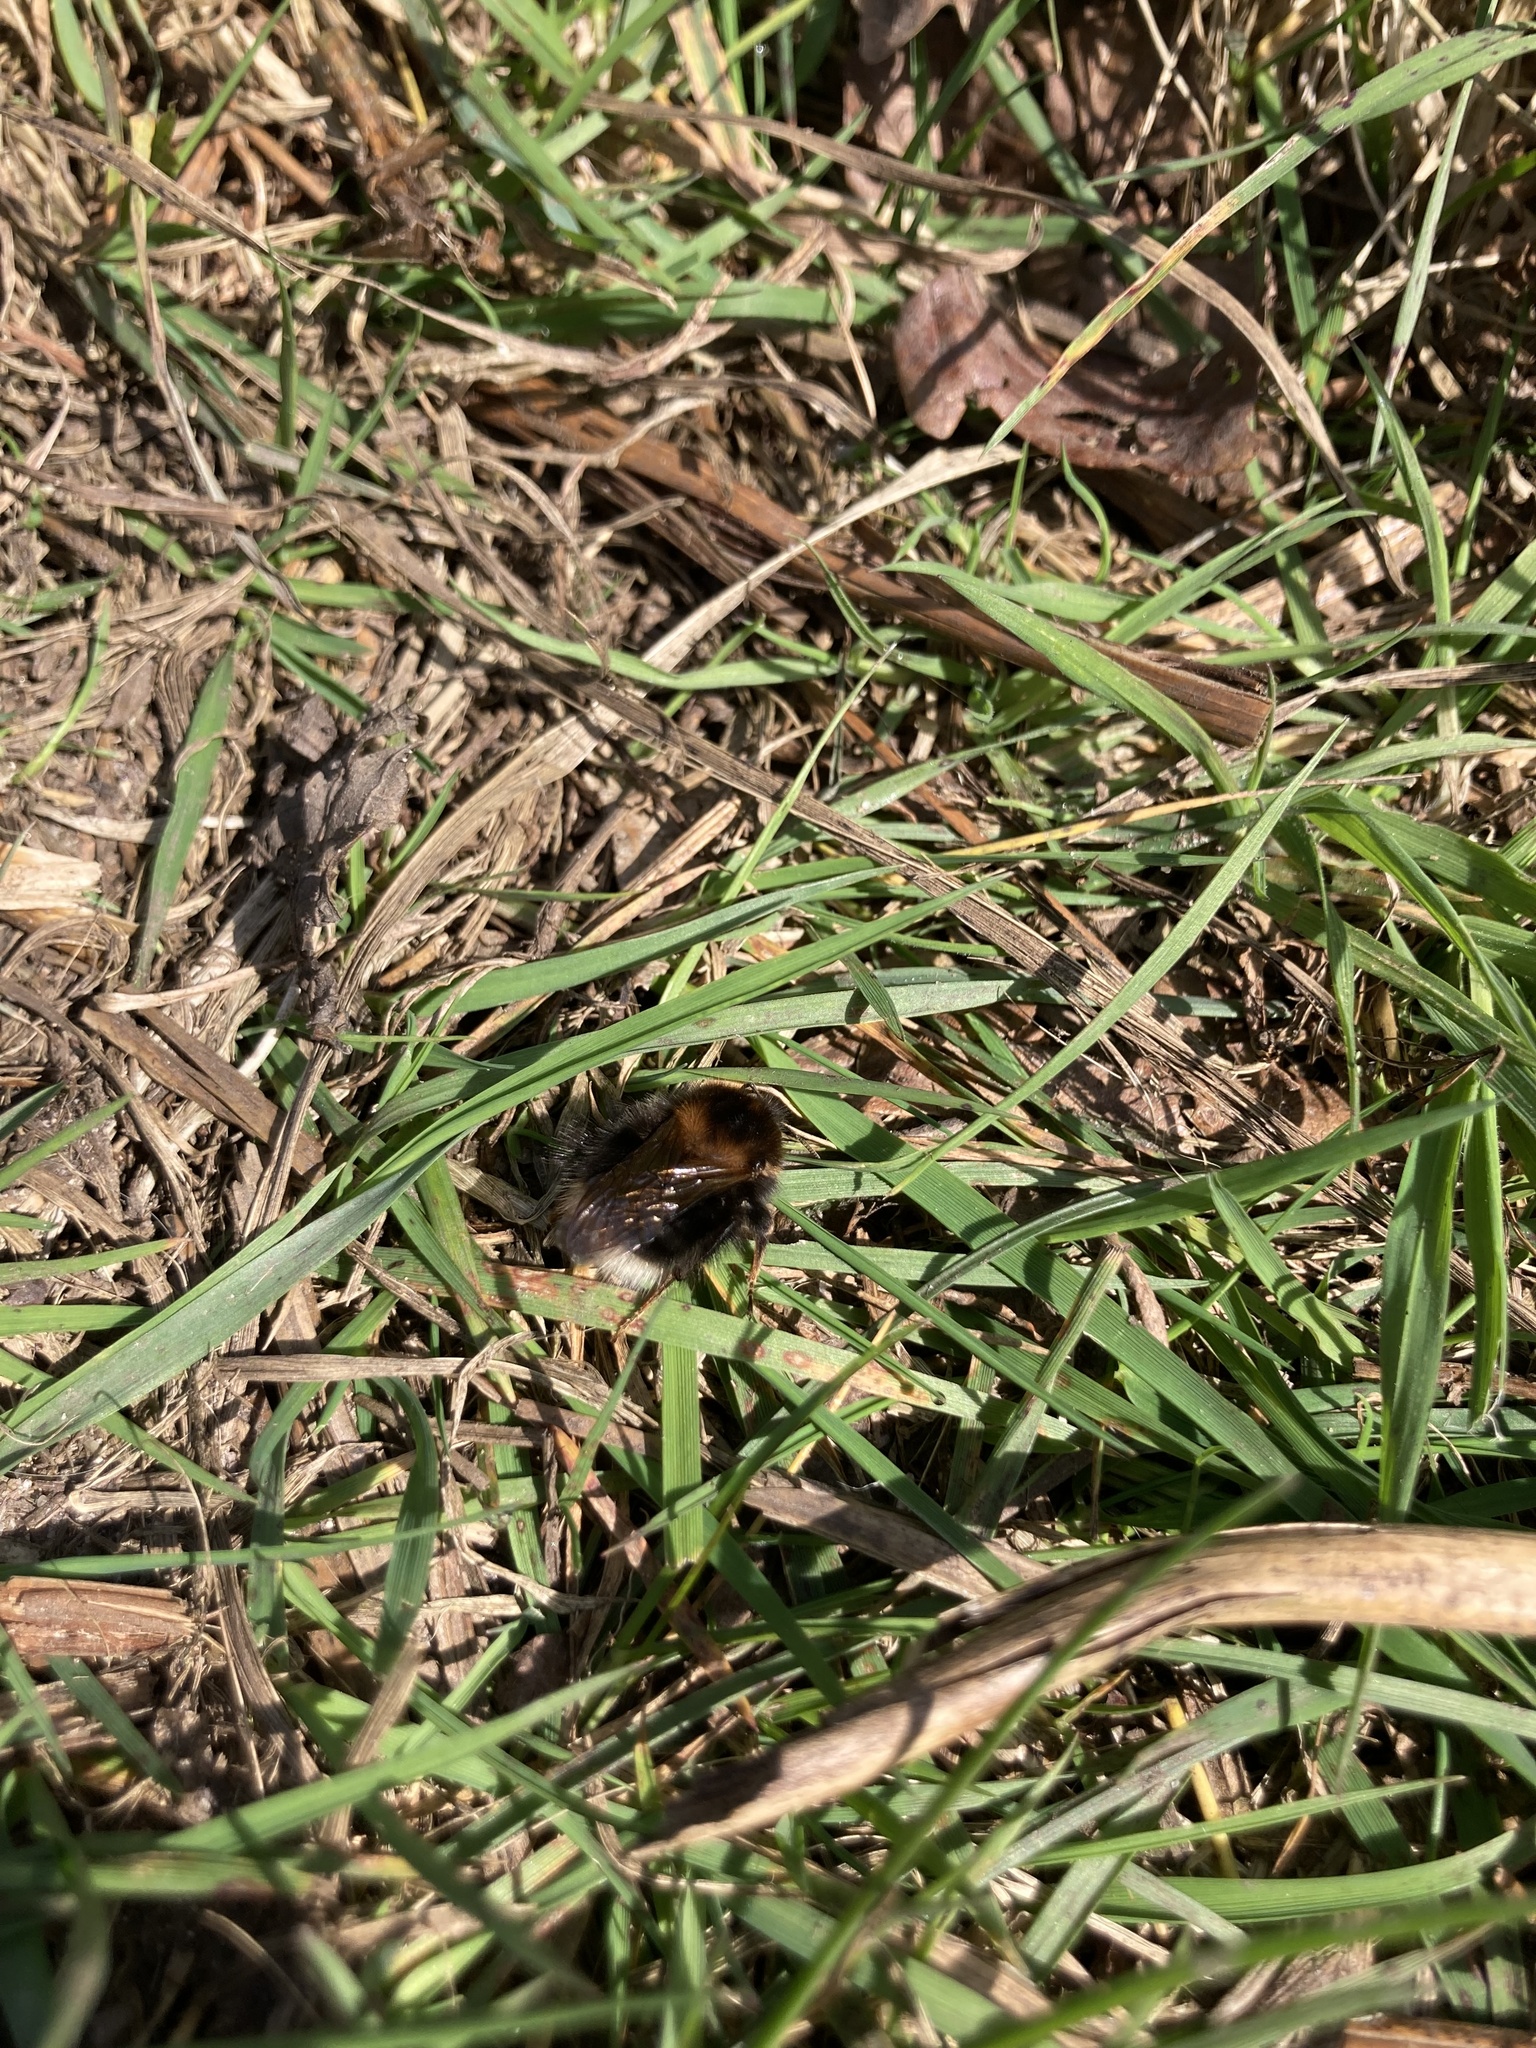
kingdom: Animalia
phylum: Arthropoda
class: Insecta
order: Hymenoptera
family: Apidae
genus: Bombus
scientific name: Bombus hypnorum
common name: New garden bumblebee
